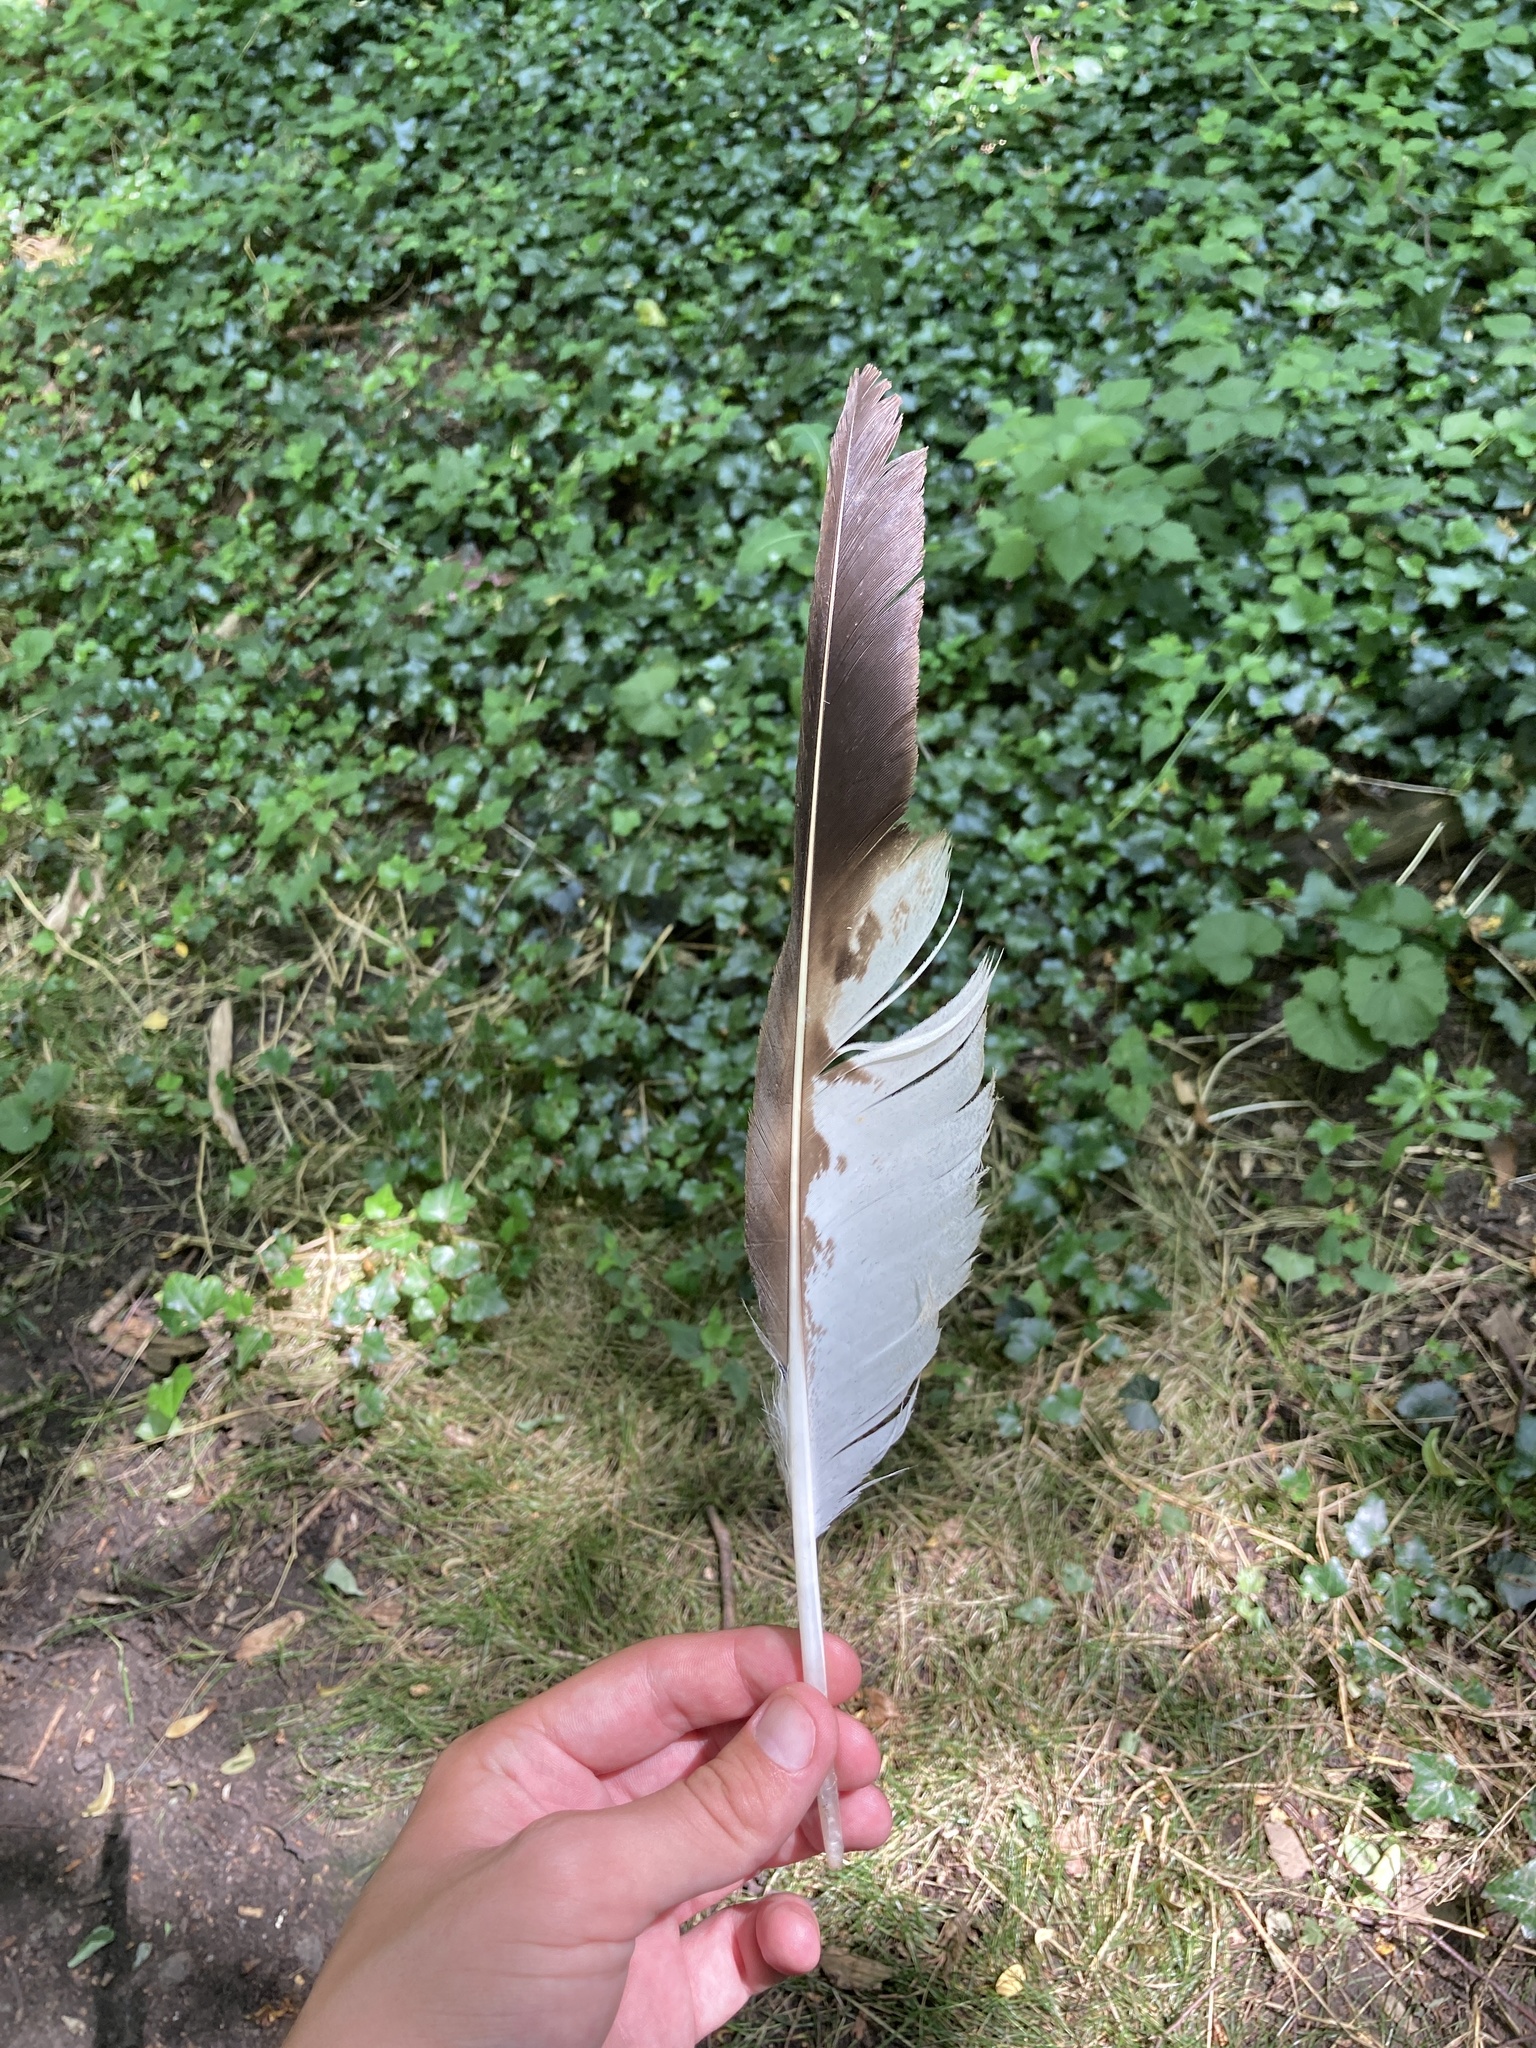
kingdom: Animalia
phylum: Chordata
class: Aves
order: Accipitriformes
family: Accipitridae
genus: Buteo
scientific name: Buteo buteo
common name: Common buzzard
